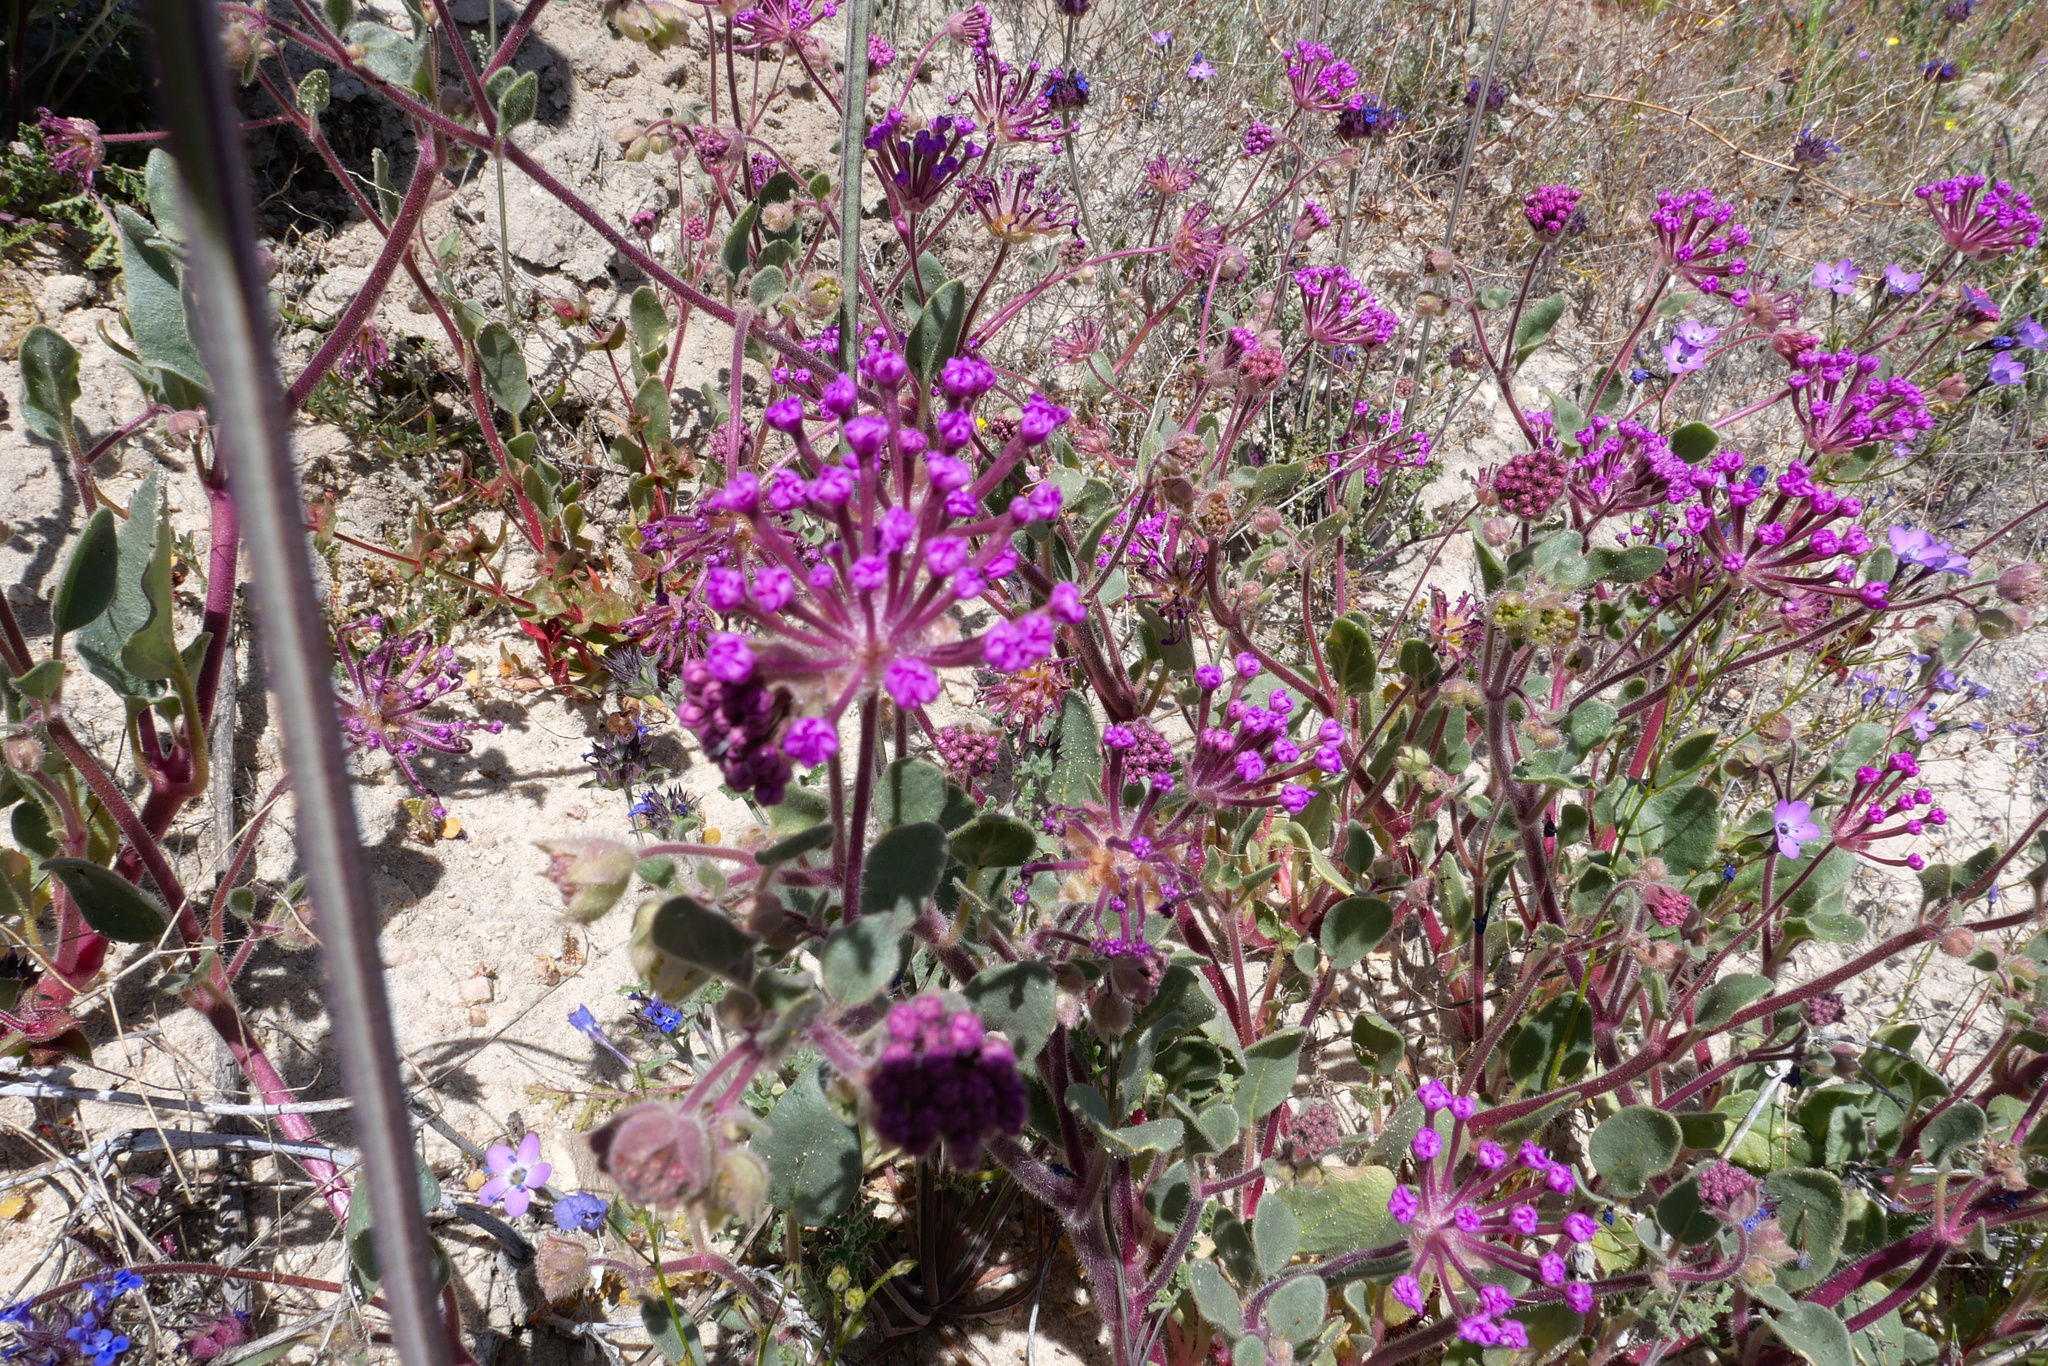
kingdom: Plantae
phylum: Tracheophyta
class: Magnoliopsida
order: Caryophyllales
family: Nyctaginaceae
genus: Abronia
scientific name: Abronia pogonantha
